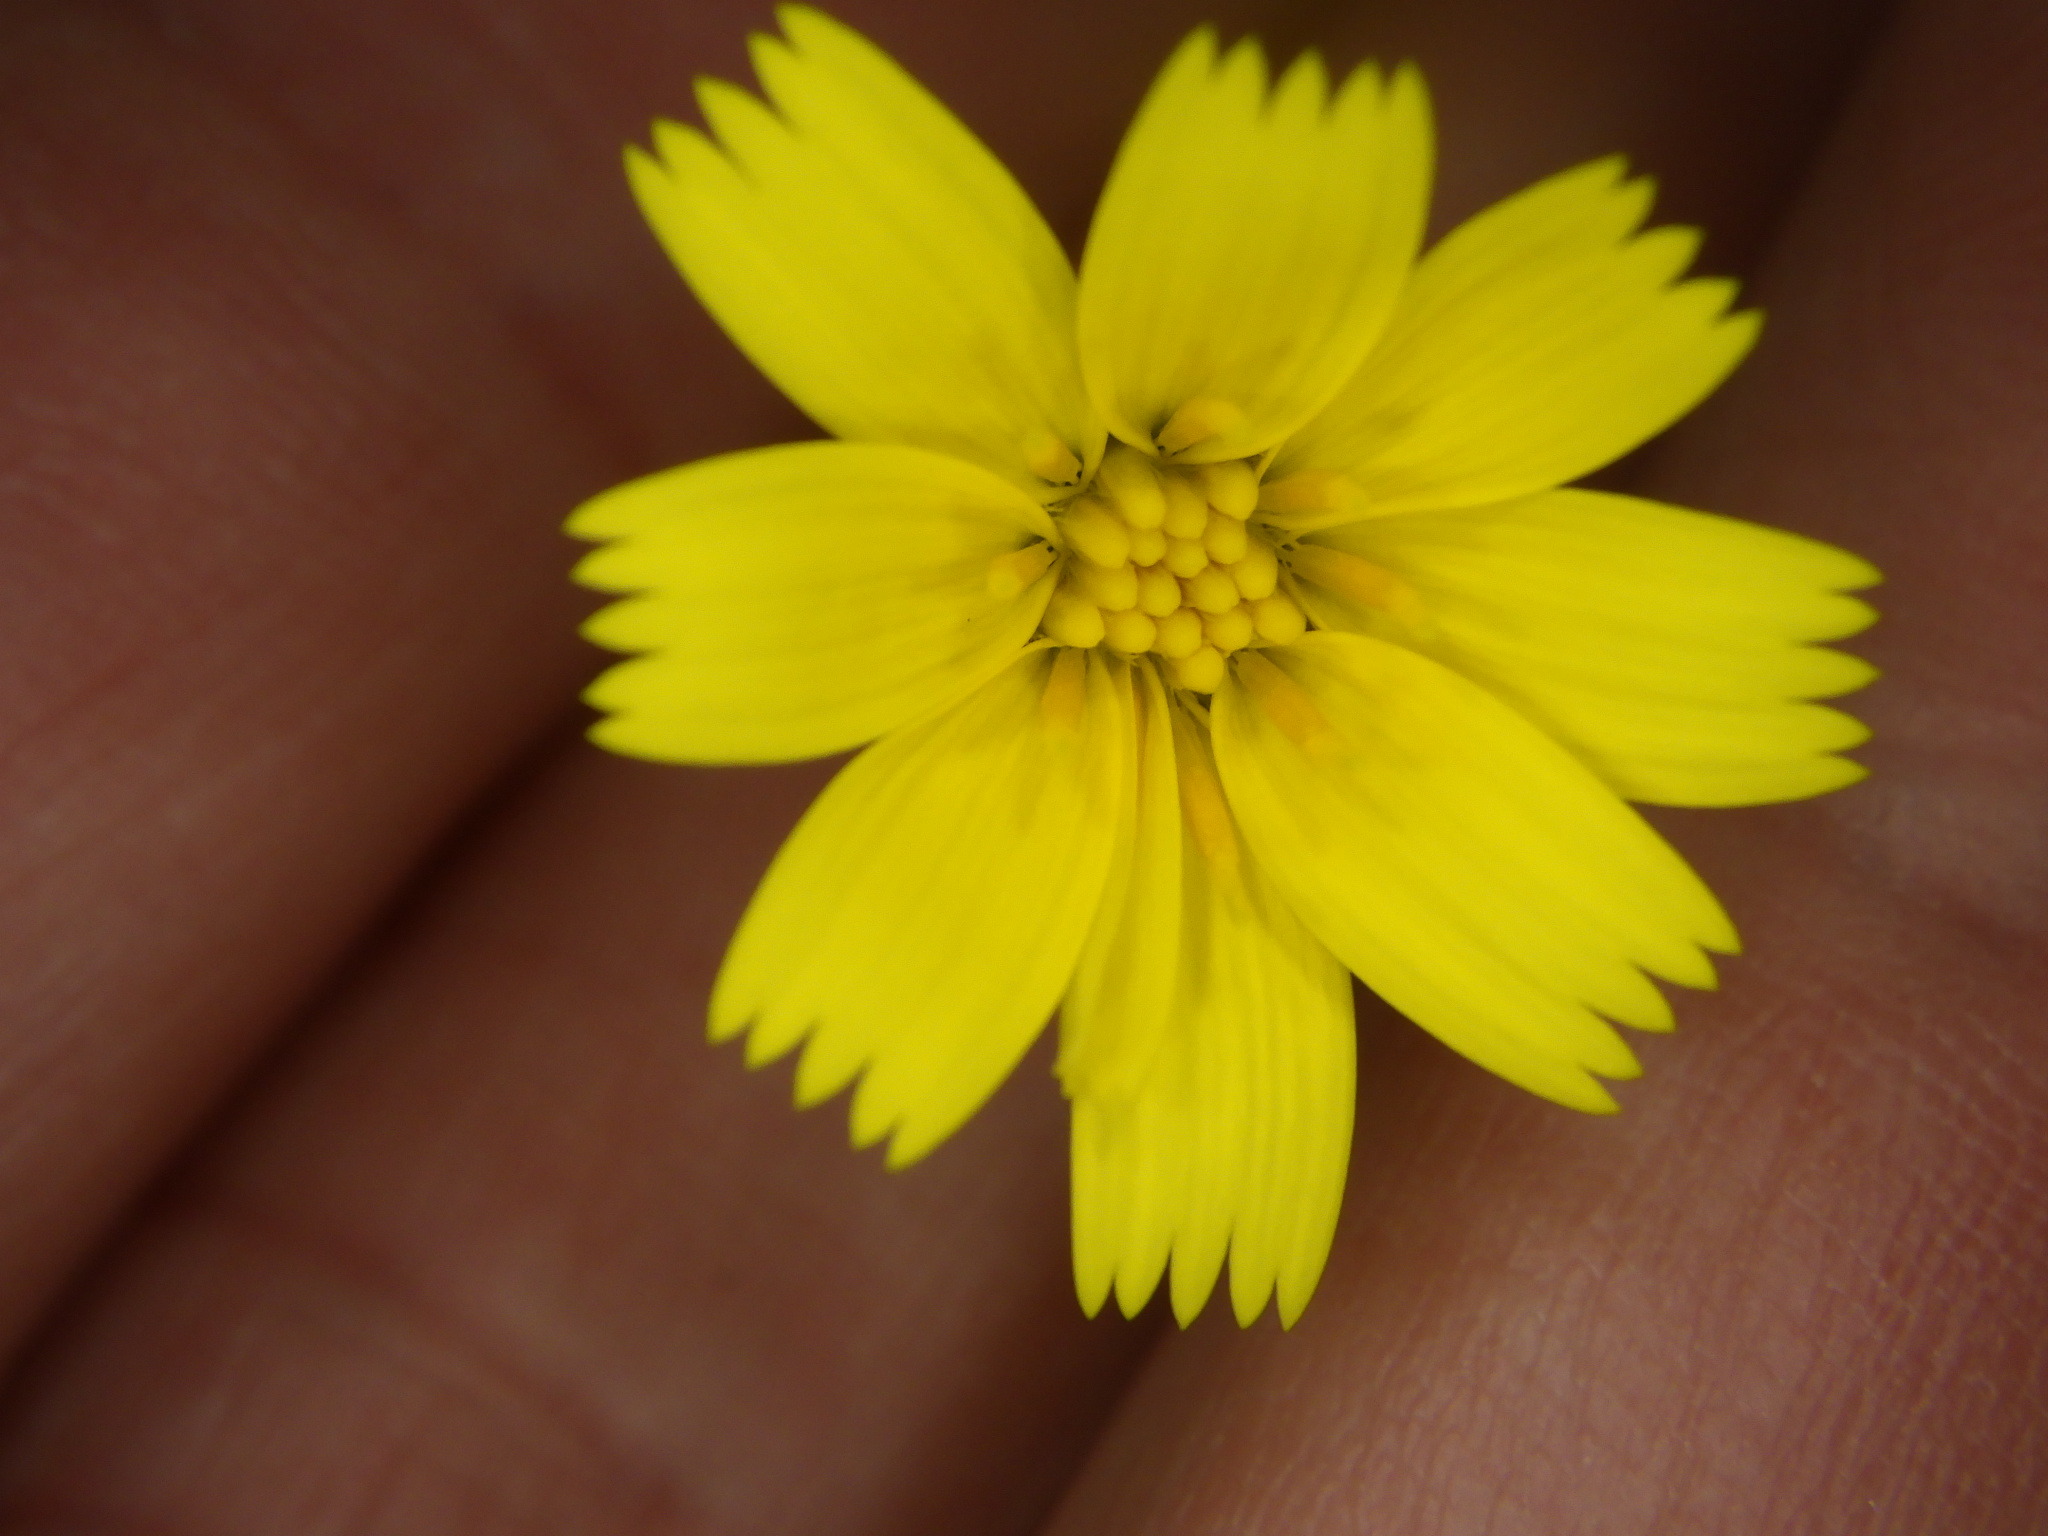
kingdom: Plantae
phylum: Tracheophyta
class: Magnoliopsida
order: Asterales
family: Asteraceae
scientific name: Asteraceae
